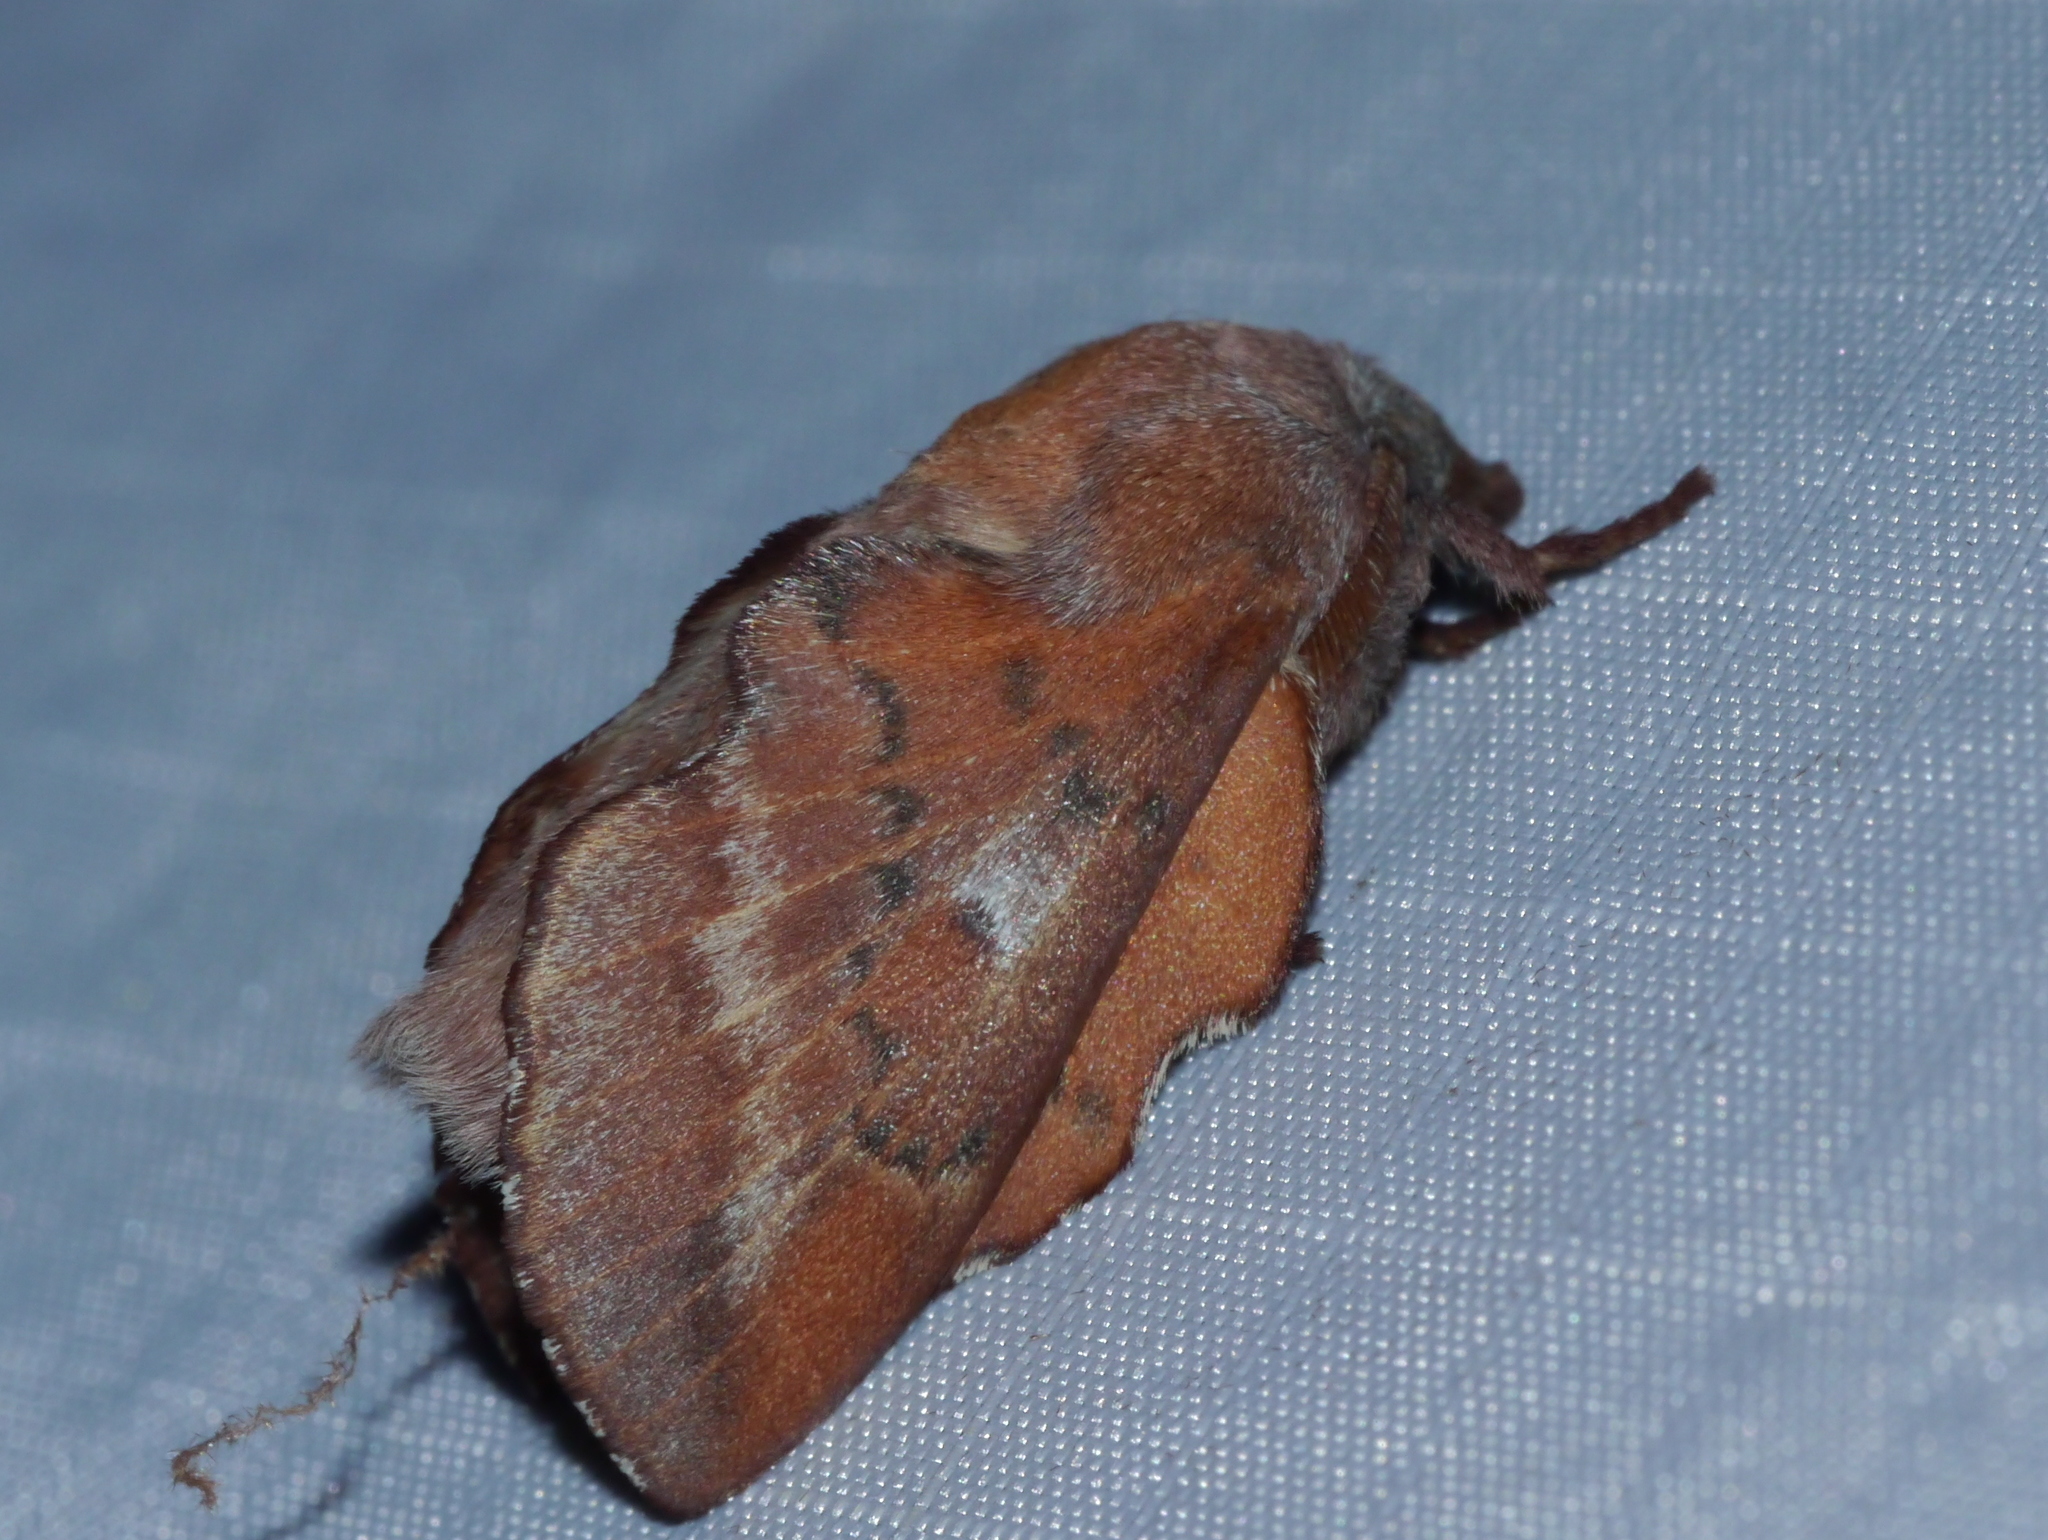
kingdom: Animalia
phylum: Arthropoda
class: Insecta
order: Lepidoptera
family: Lasiocampidae
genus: Phyllodesma
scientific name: Phyllodesma americana
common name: American lappet moth
